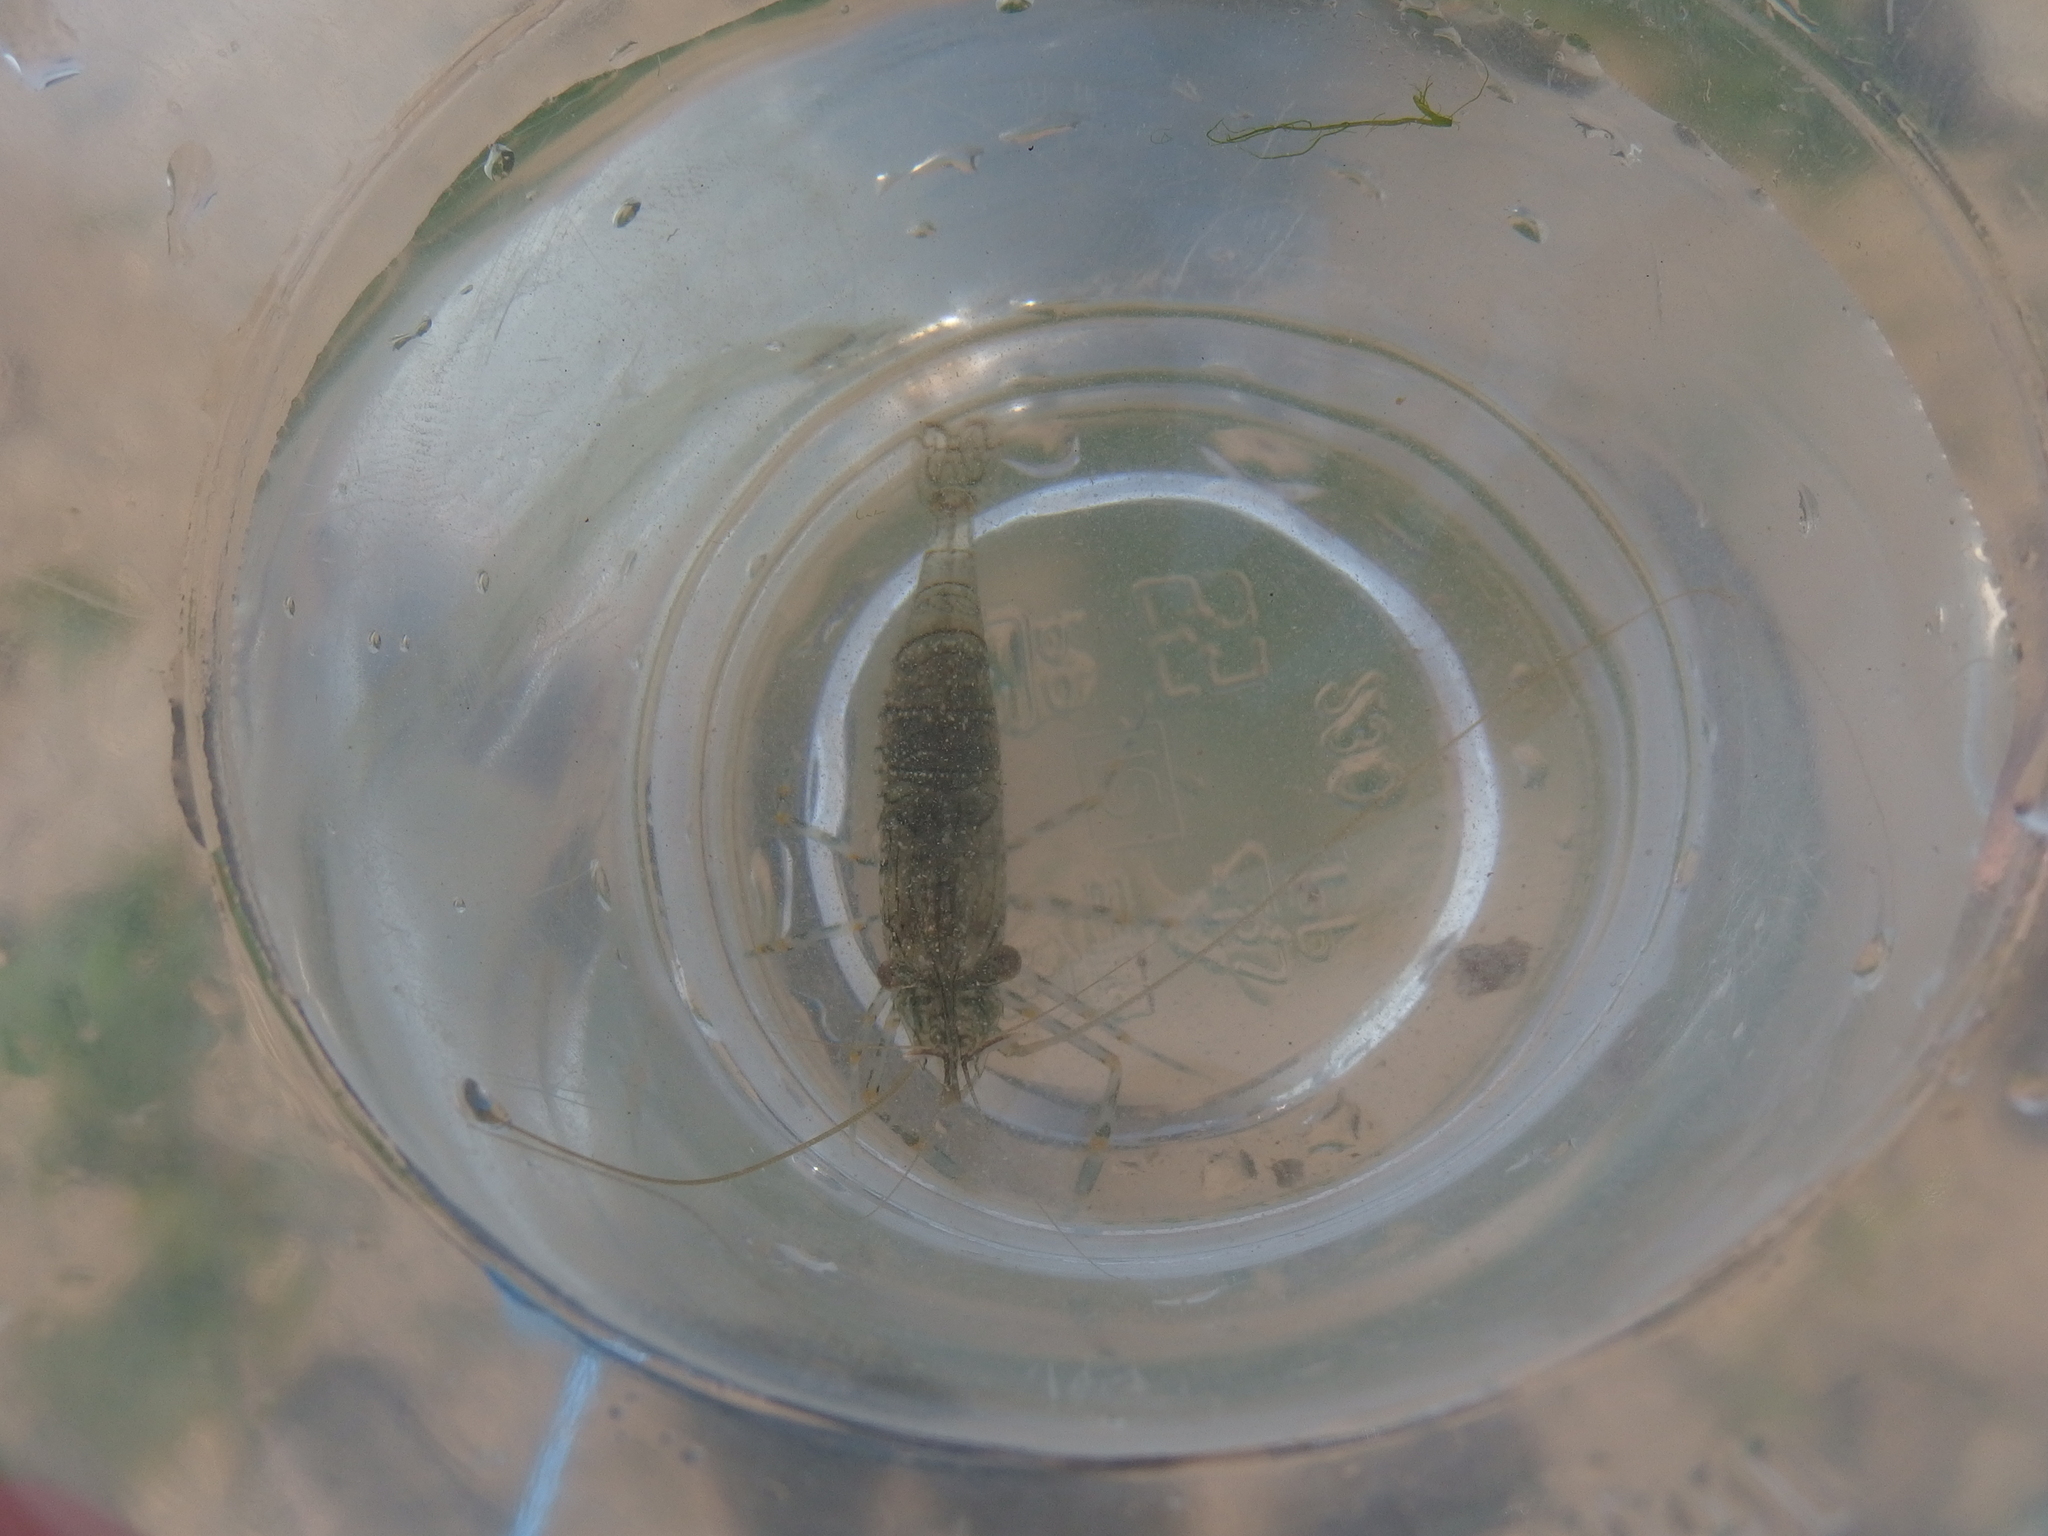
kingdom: Animalia
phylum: Arthropoda
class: Malacostraca
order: Decapoda
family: Palaemonidae
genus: Palaemon
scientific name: Palaemon elegans
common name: Grass prawm
